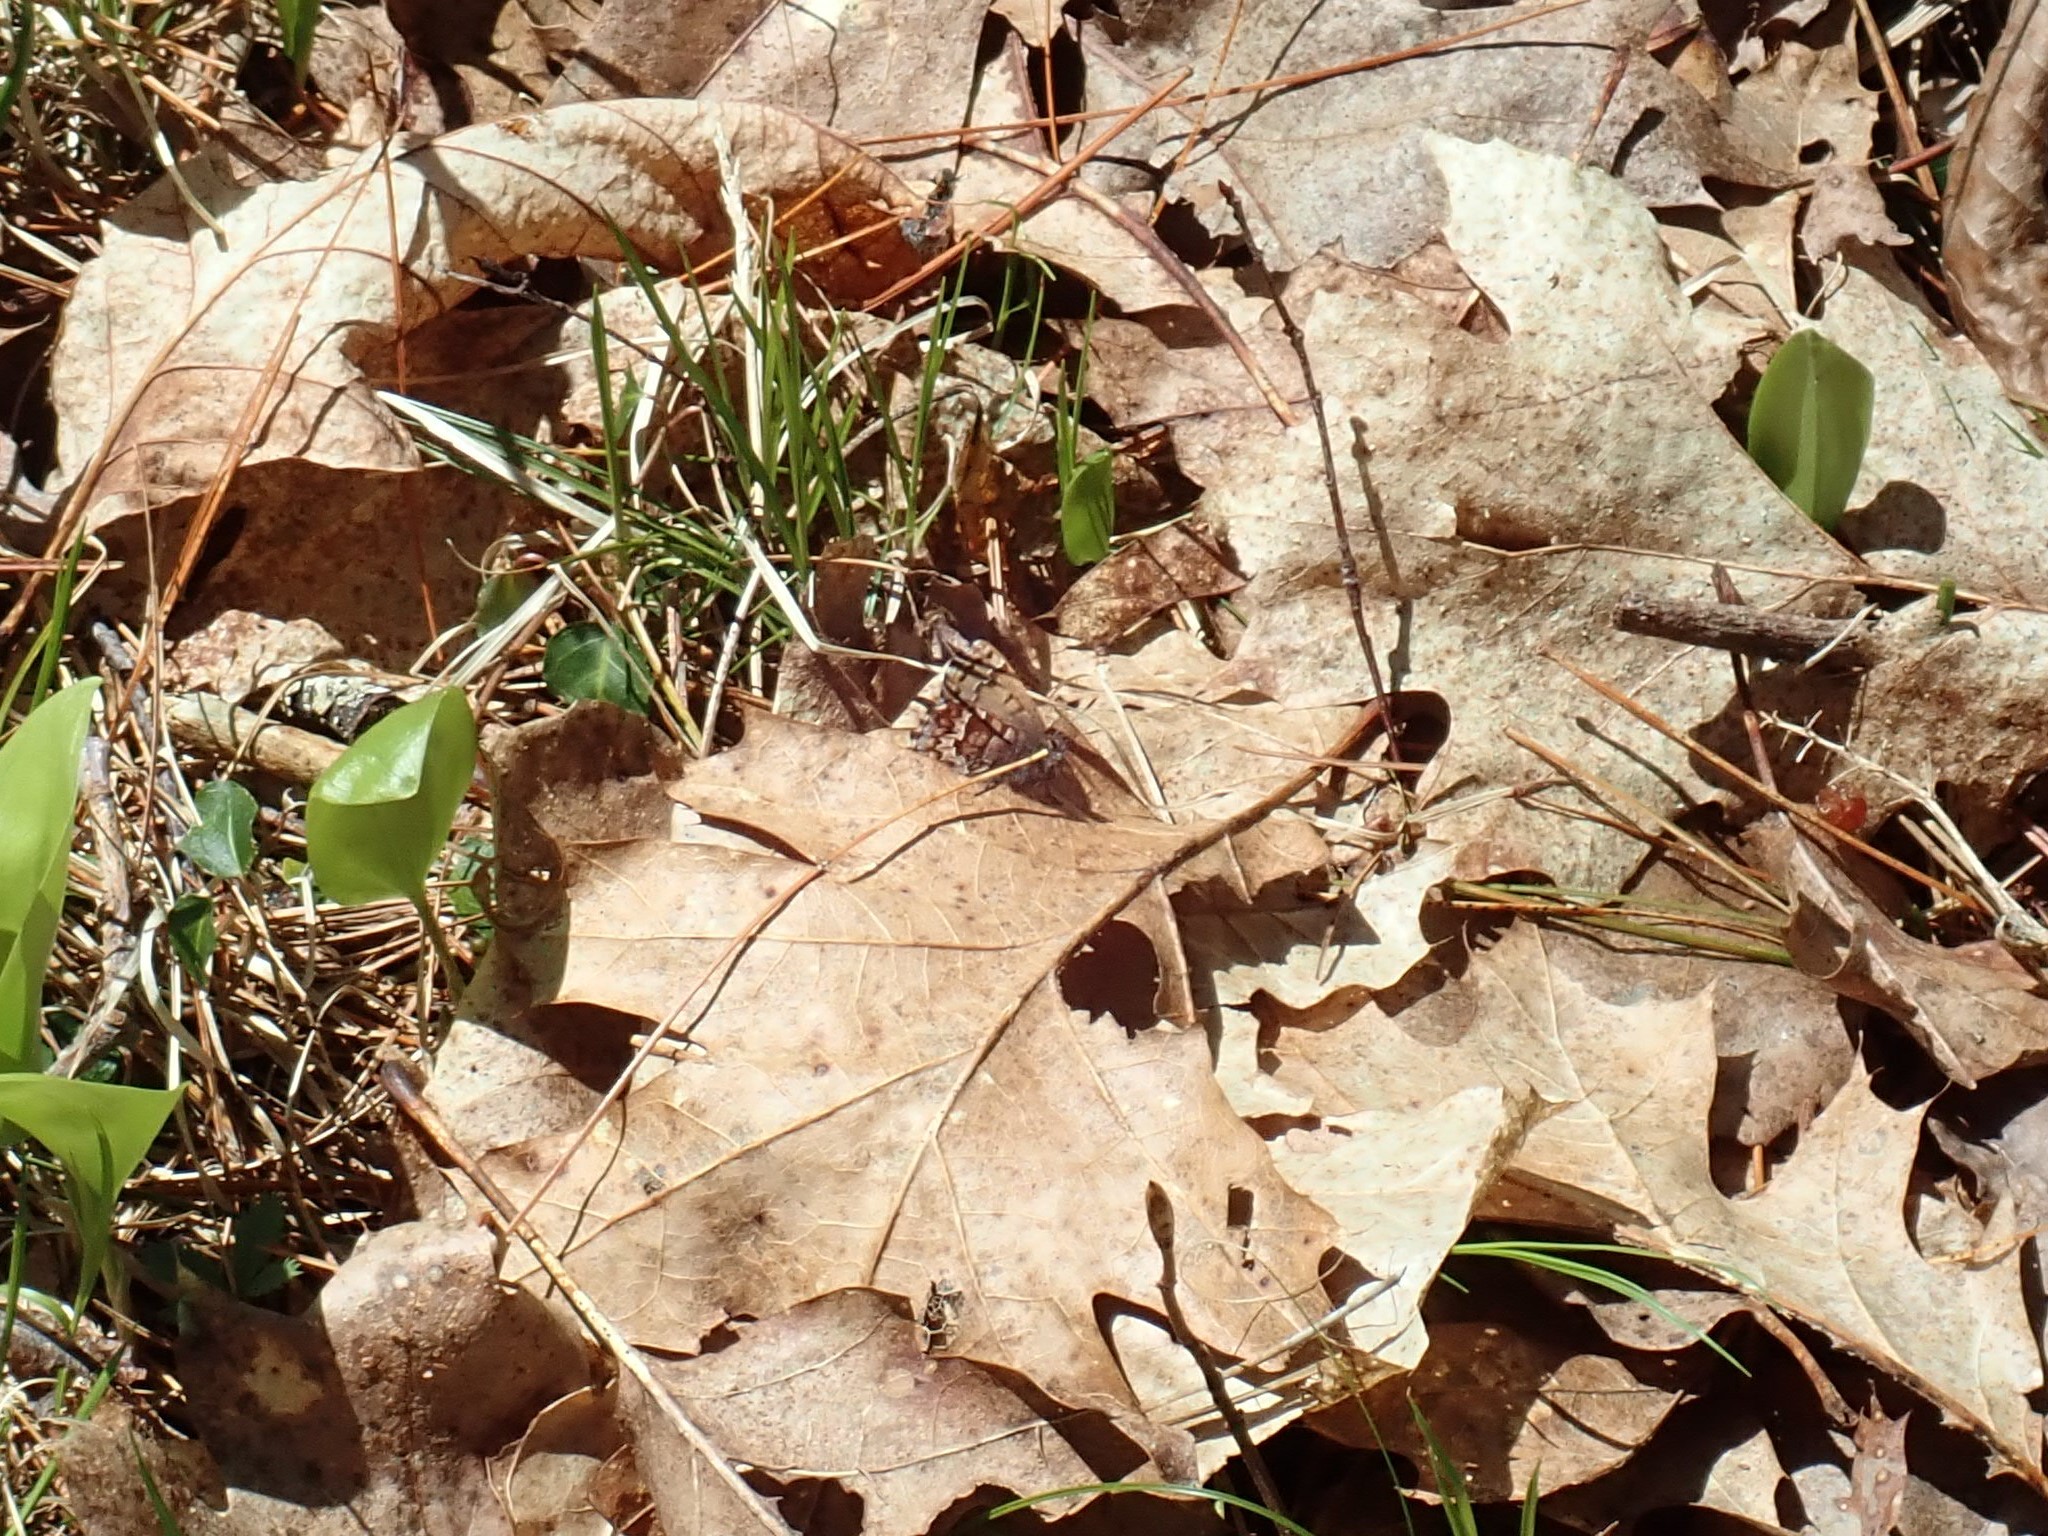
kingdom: Animalia
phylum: Arthropoda
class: Insecta
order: Lepidoptera
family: Lycaenidae
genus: Incisalia
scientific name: Incisalia niphon
